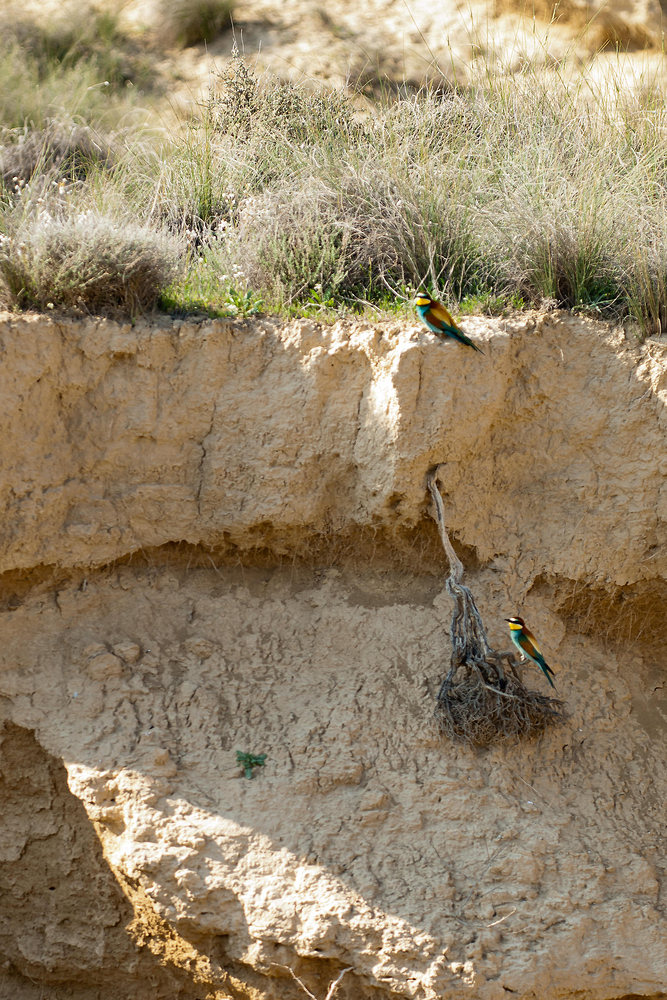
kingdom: Animalia
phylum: Chordata
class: Aves
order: Coraciiformes
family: Meropidae
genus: Merops
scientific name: Merops apiaster
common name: European bee-eater
